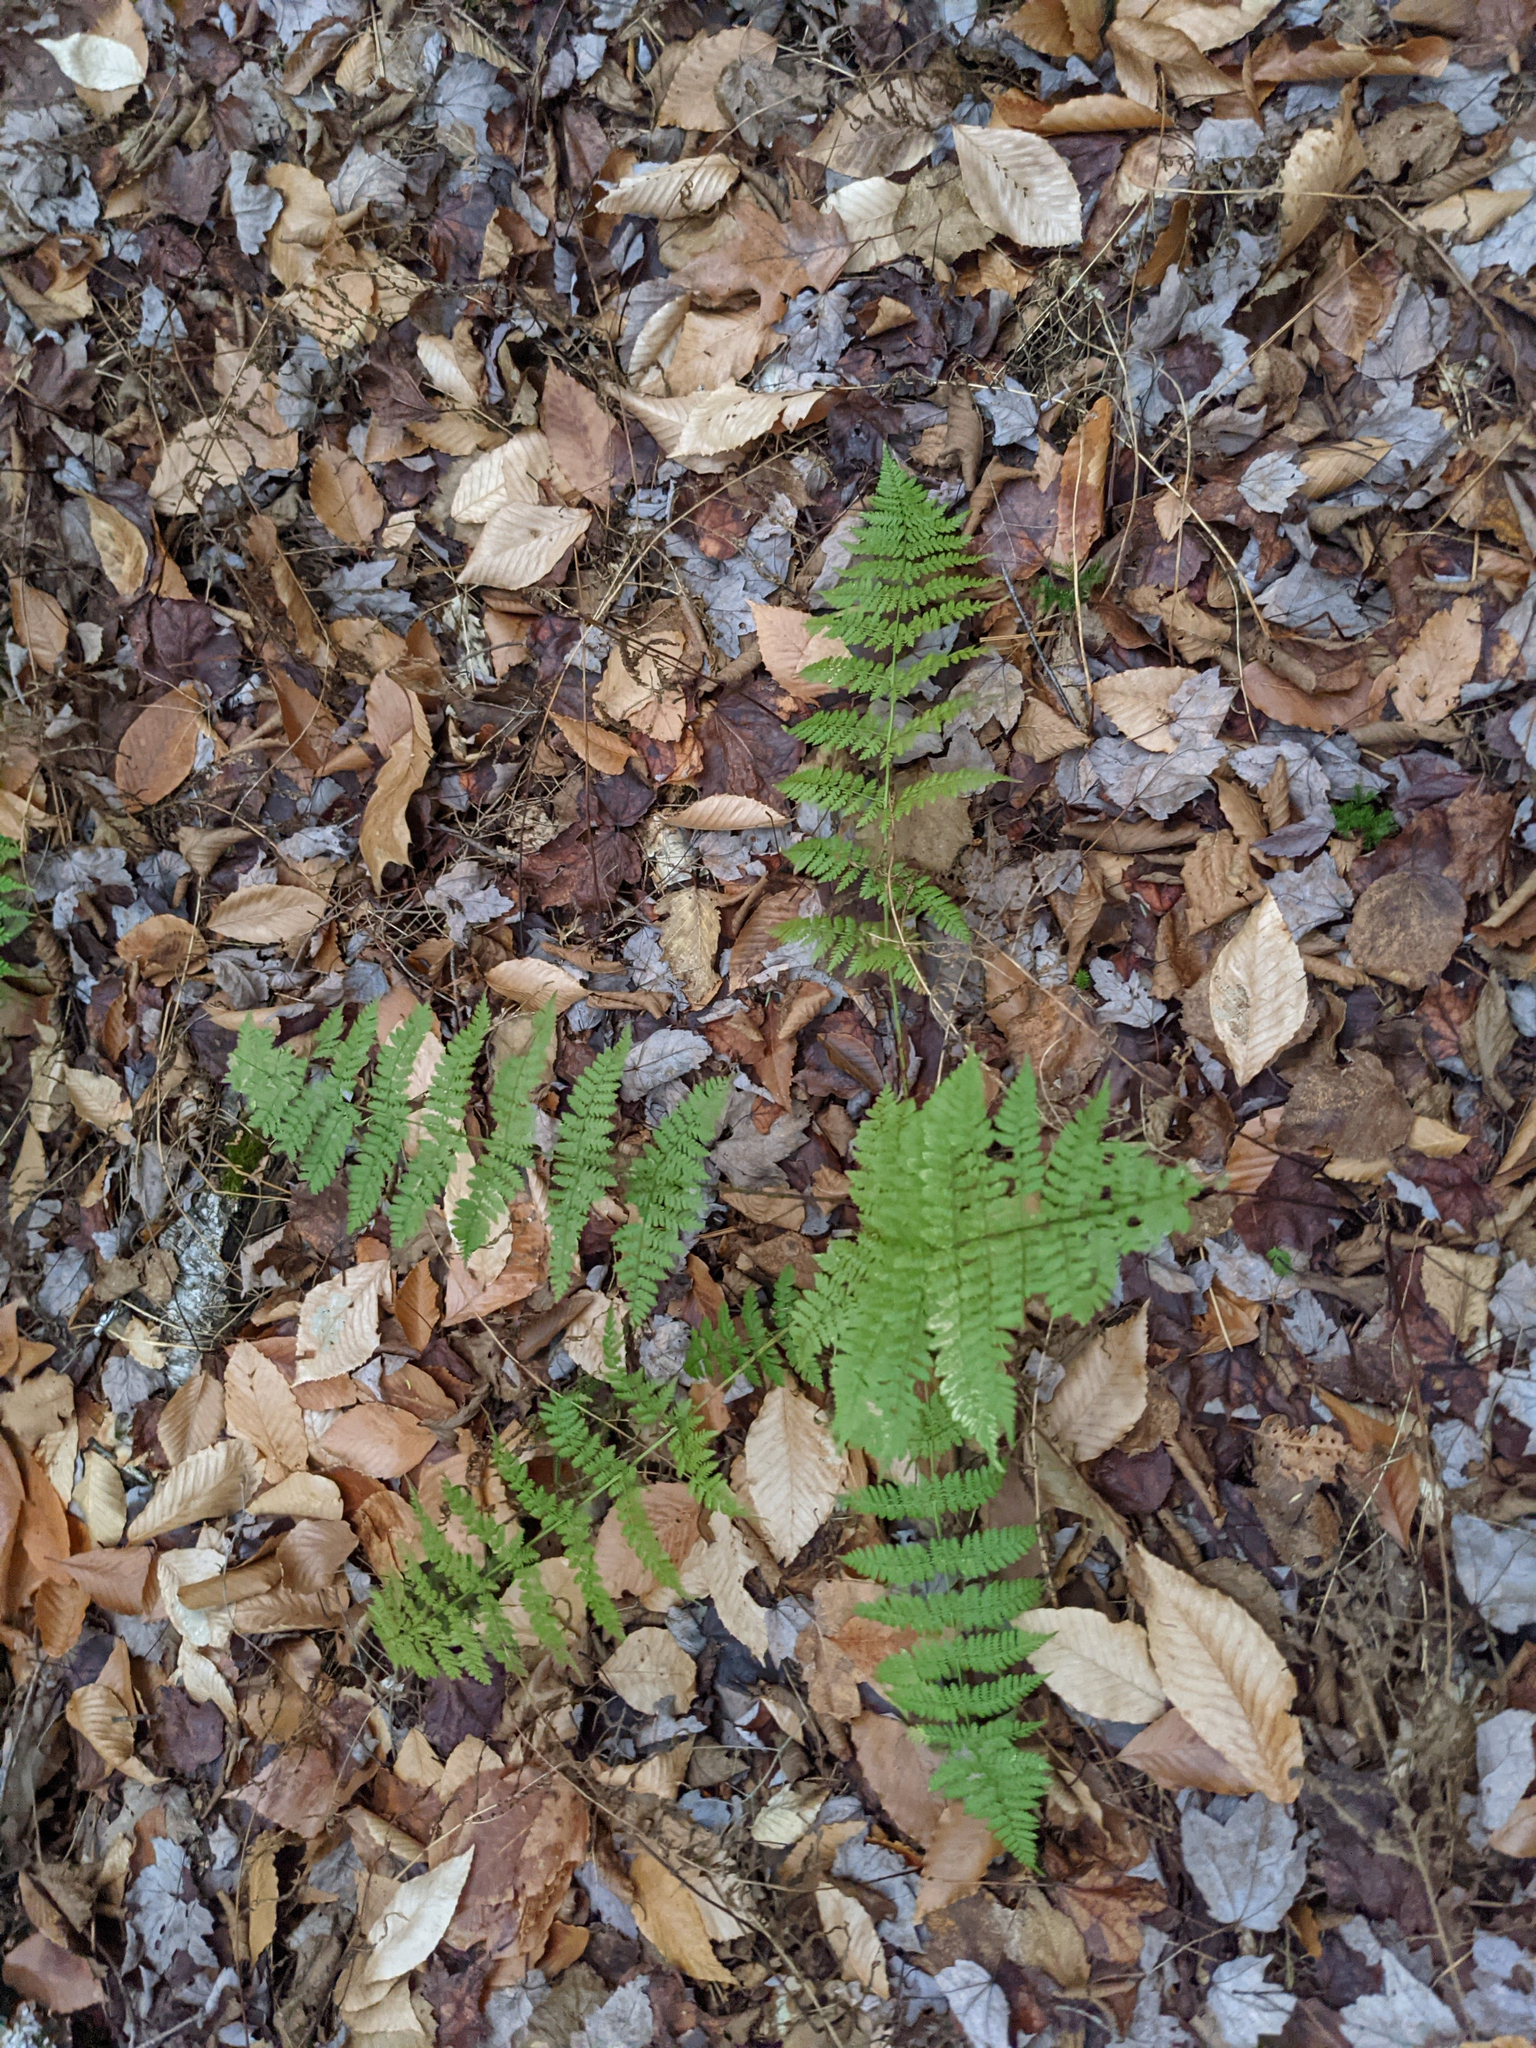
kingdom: Plantae
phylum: Tracheophyta
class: Polypodiopsida
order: Polypodiales
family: Dryopteridaceae
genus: Dryopteris
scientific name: Dryopteris intermedia
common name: Evergreen wood fern
